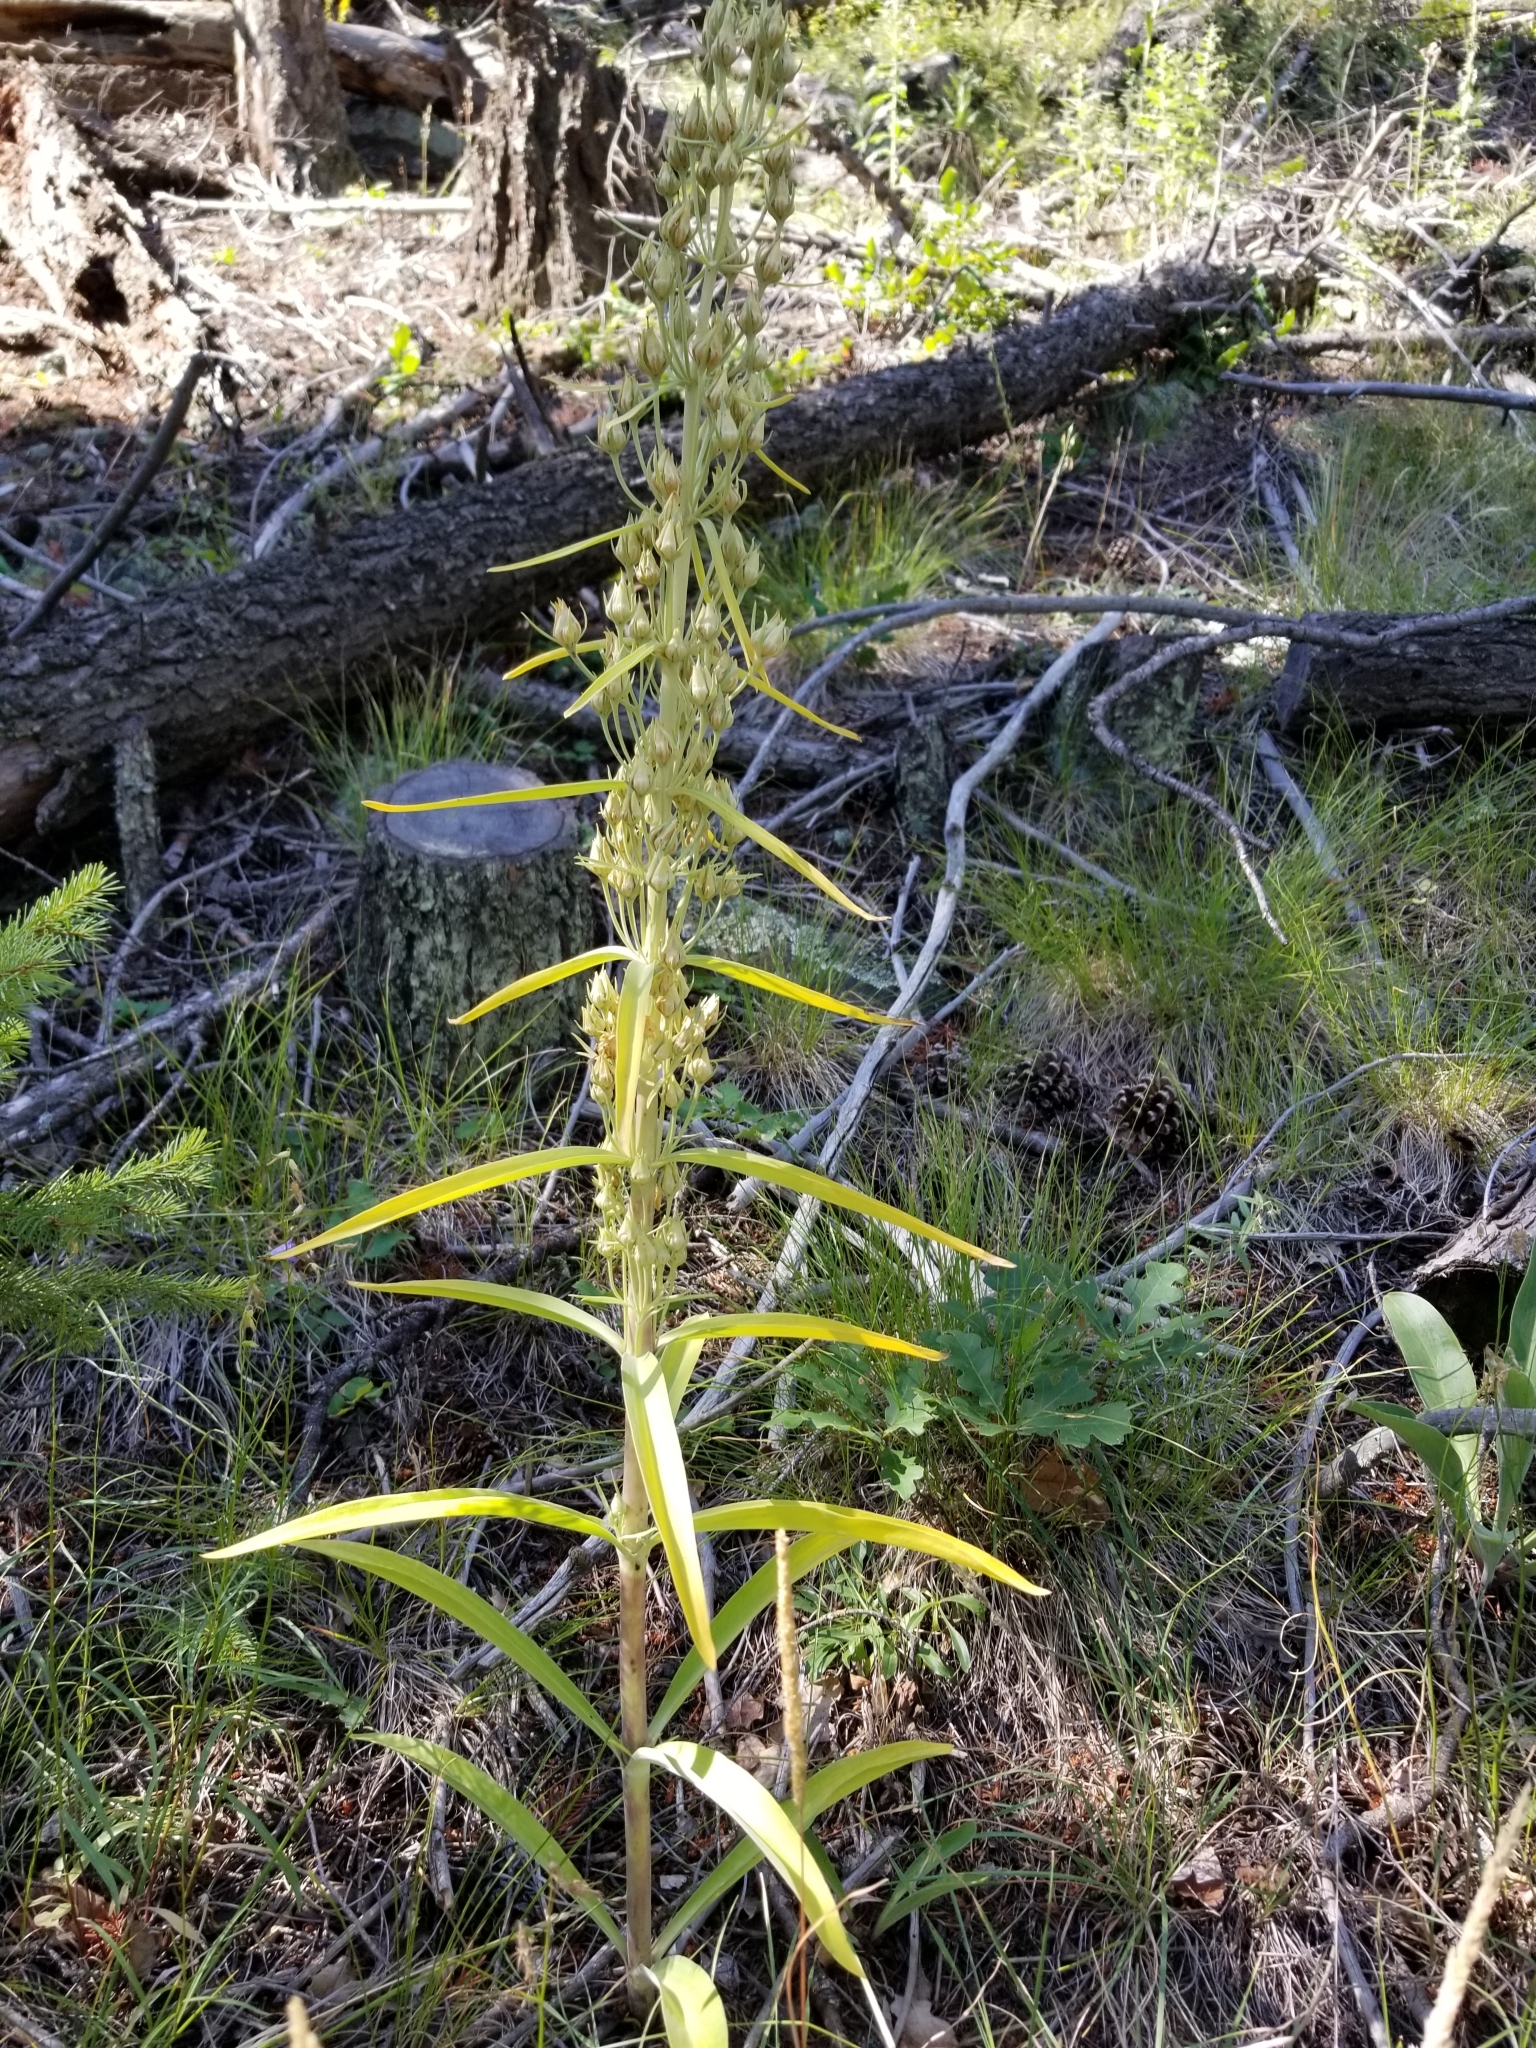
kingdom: Plantae
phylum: Tracheophyta
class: Magnoliopsida
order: Gentianales
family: Gentianaceae
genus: Frasera
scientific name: Frasera speciosa
